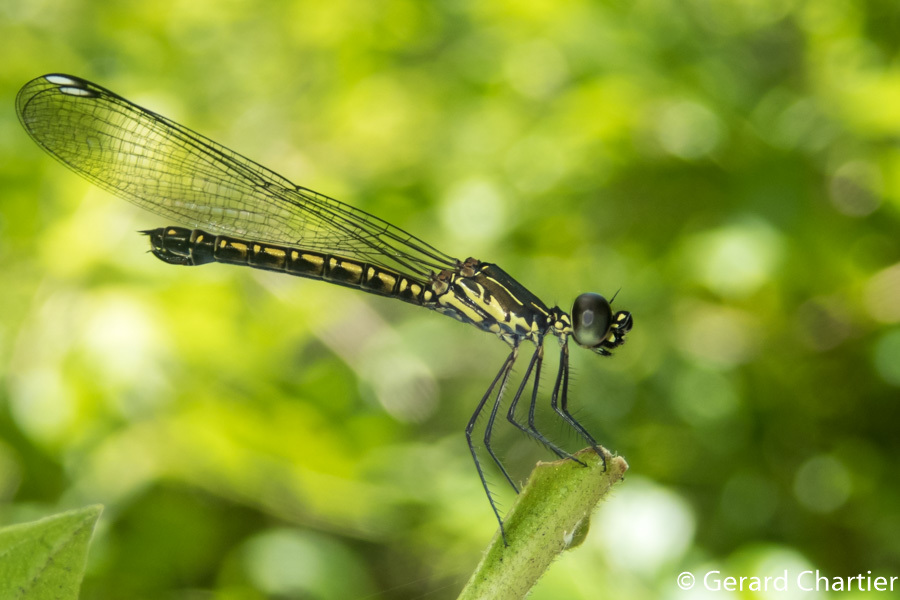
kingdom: Animalia
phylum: Arthropoda
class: Insecta
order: Odonata
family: Chlorocyphidae
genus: Libellago
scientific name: Libellago hyalina
